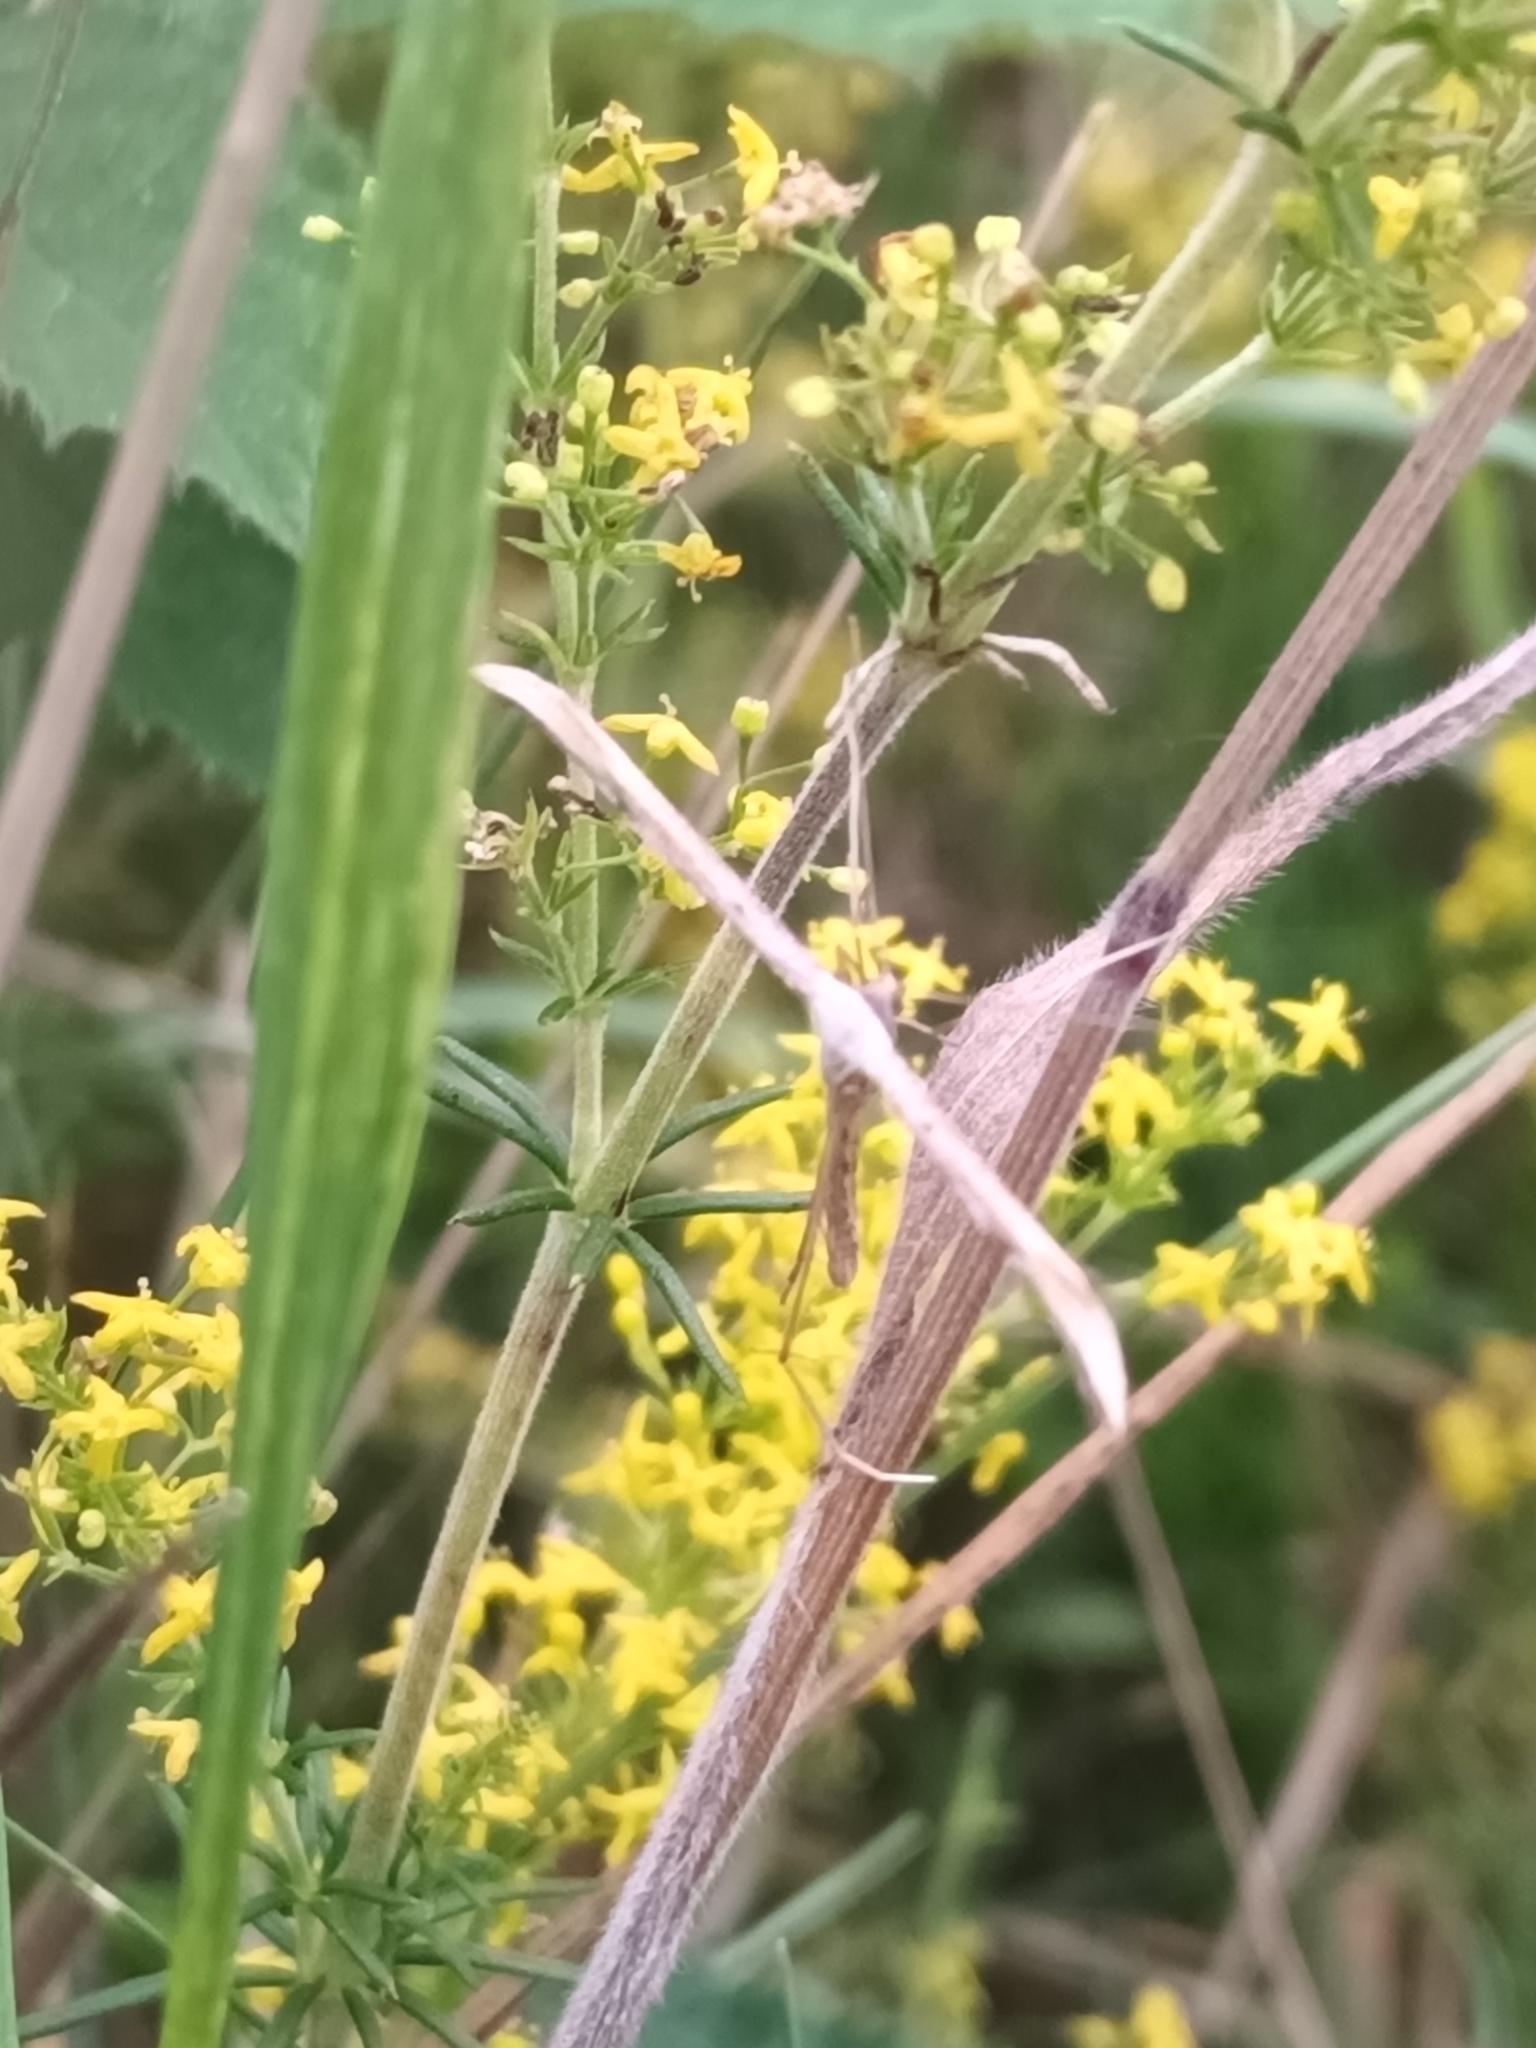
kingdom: Animalia
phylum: Arthropoda
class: Insecta
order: Lepidoptera
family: Pterophoridae
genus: Emmelina
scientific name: Emmelina monodactyla
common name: Common plume
